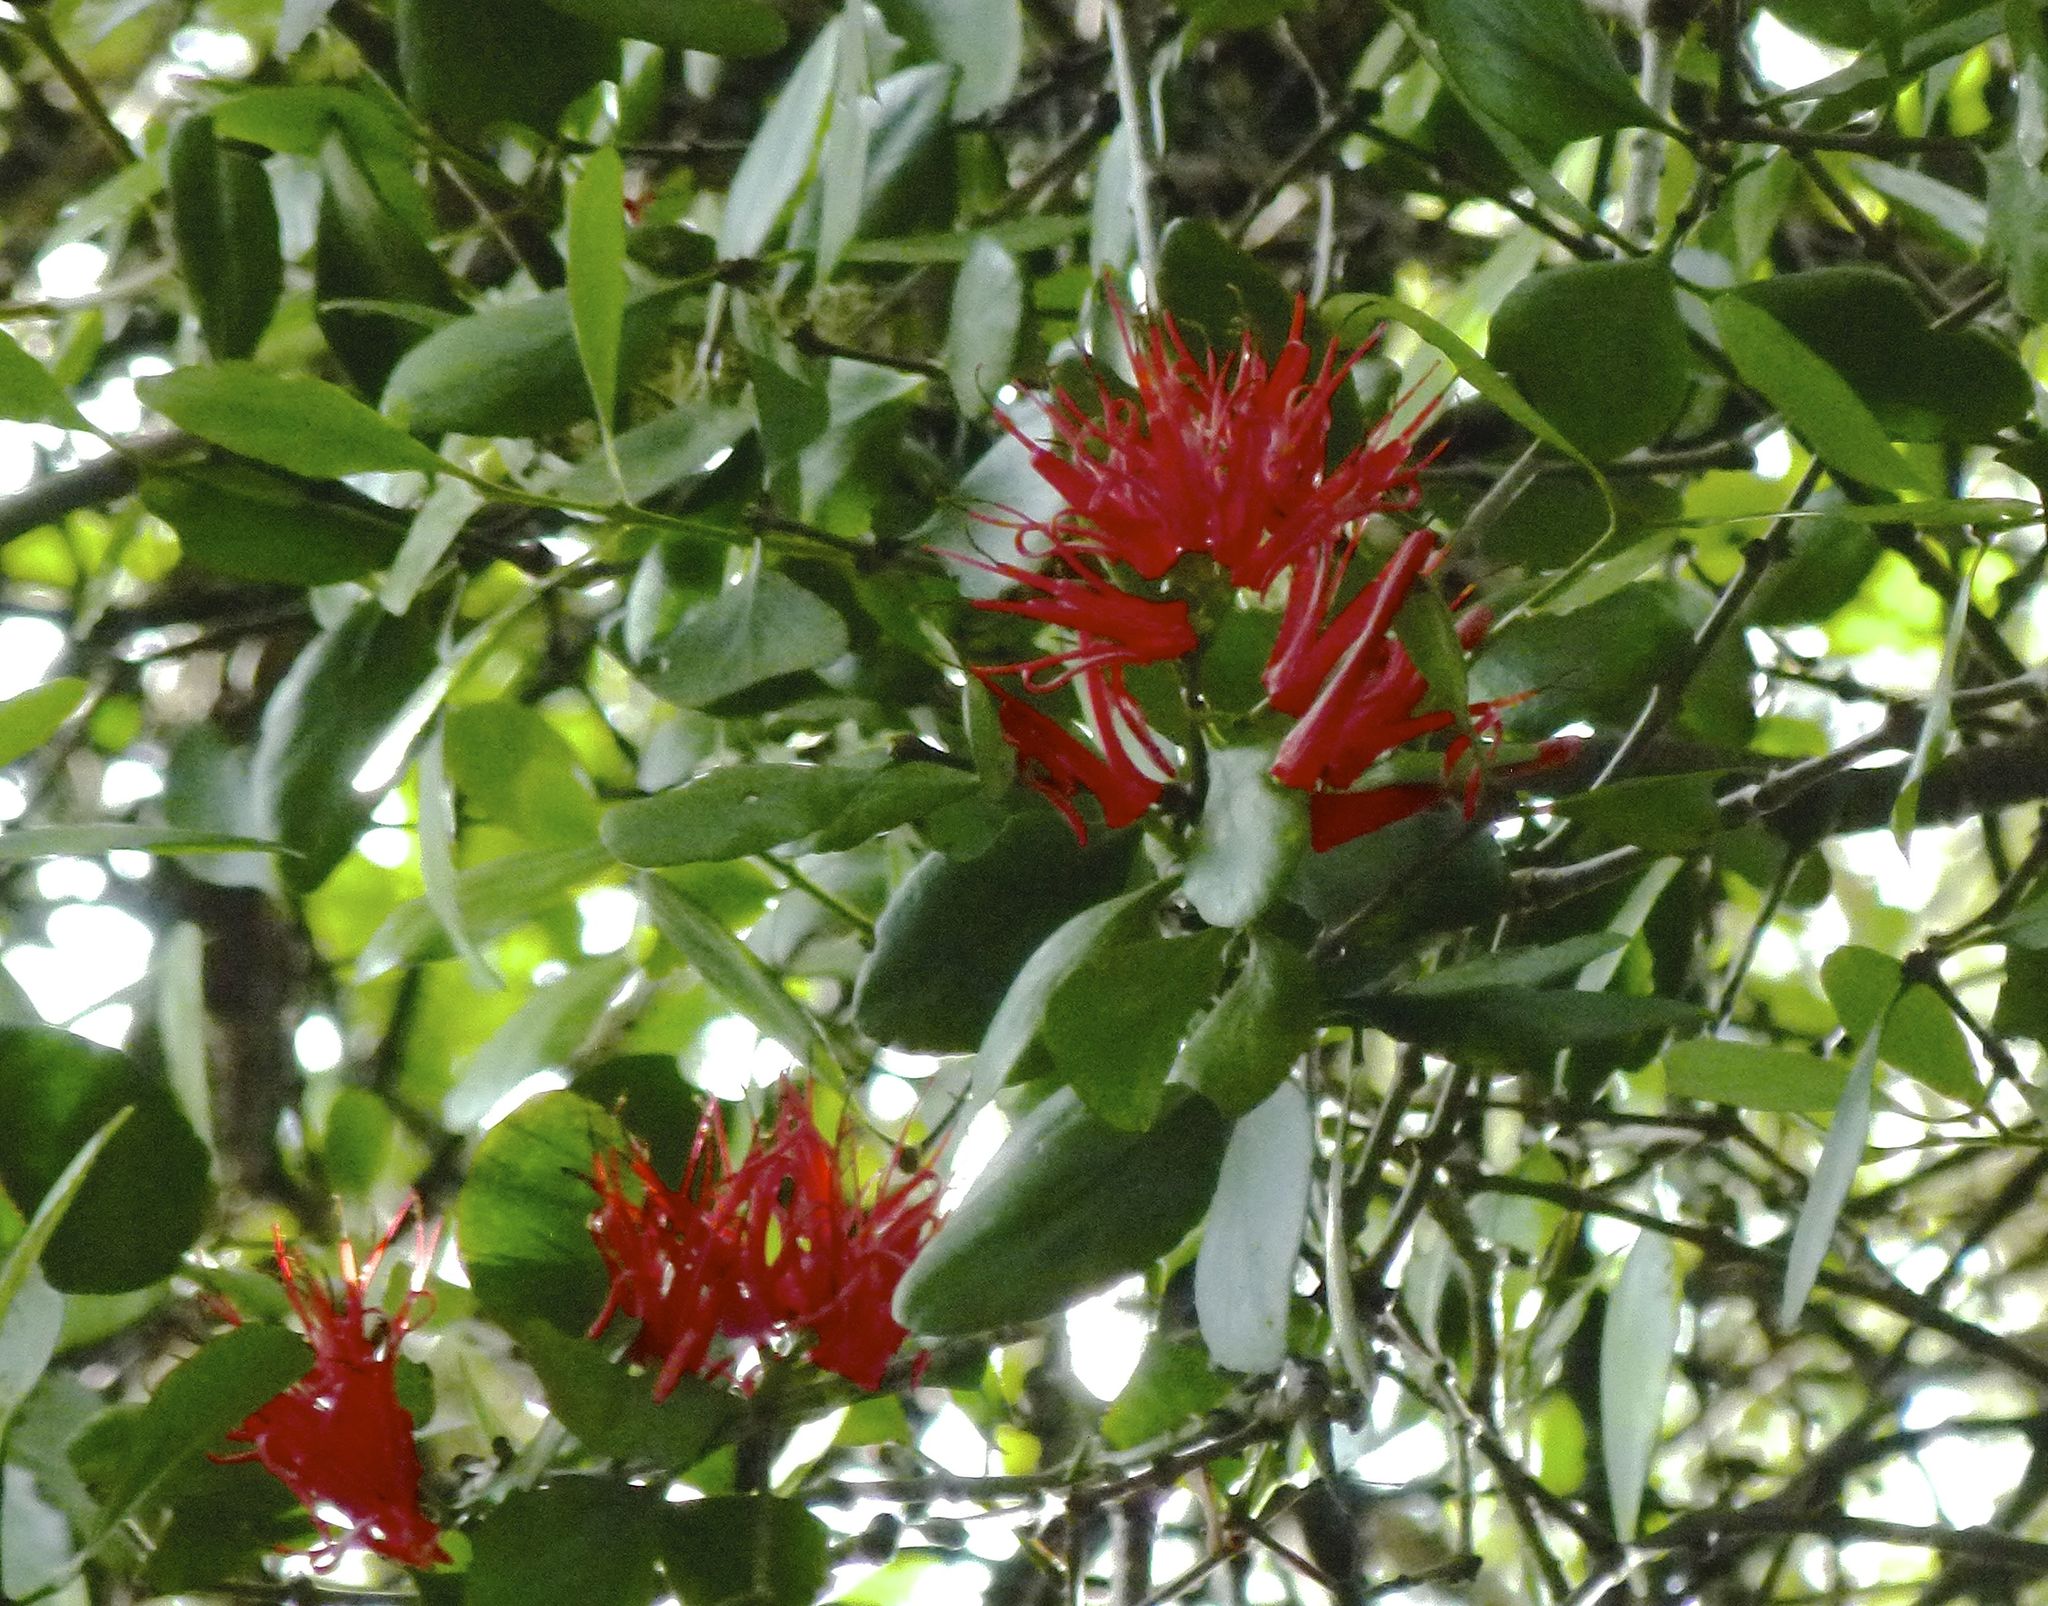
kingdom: Plantae
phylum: Tracheophyta
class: Magnoliopsida
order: Santalales
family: Loranthaceae
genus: Peraxilla
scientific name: Peraxilla colensoi
